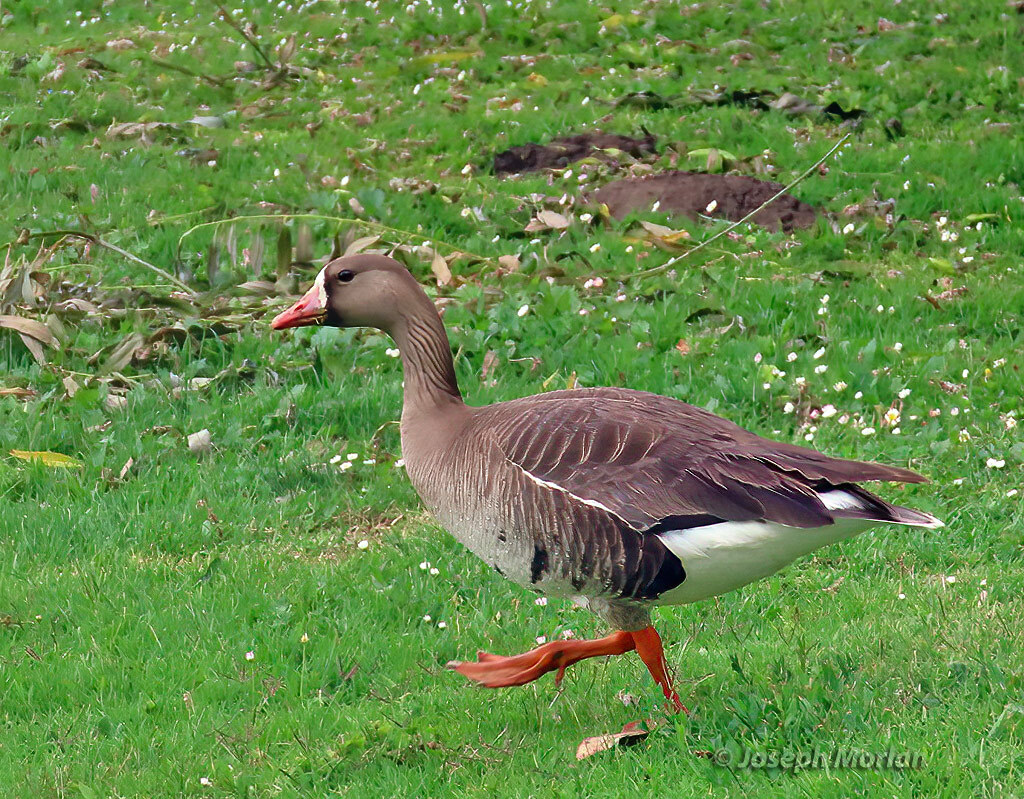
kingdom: Animalia
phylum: Chordata
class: Aves
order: Anseriformes
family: Anatidae
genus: Anser
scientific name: Anser albifrons
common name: Greater white-fronted goose
